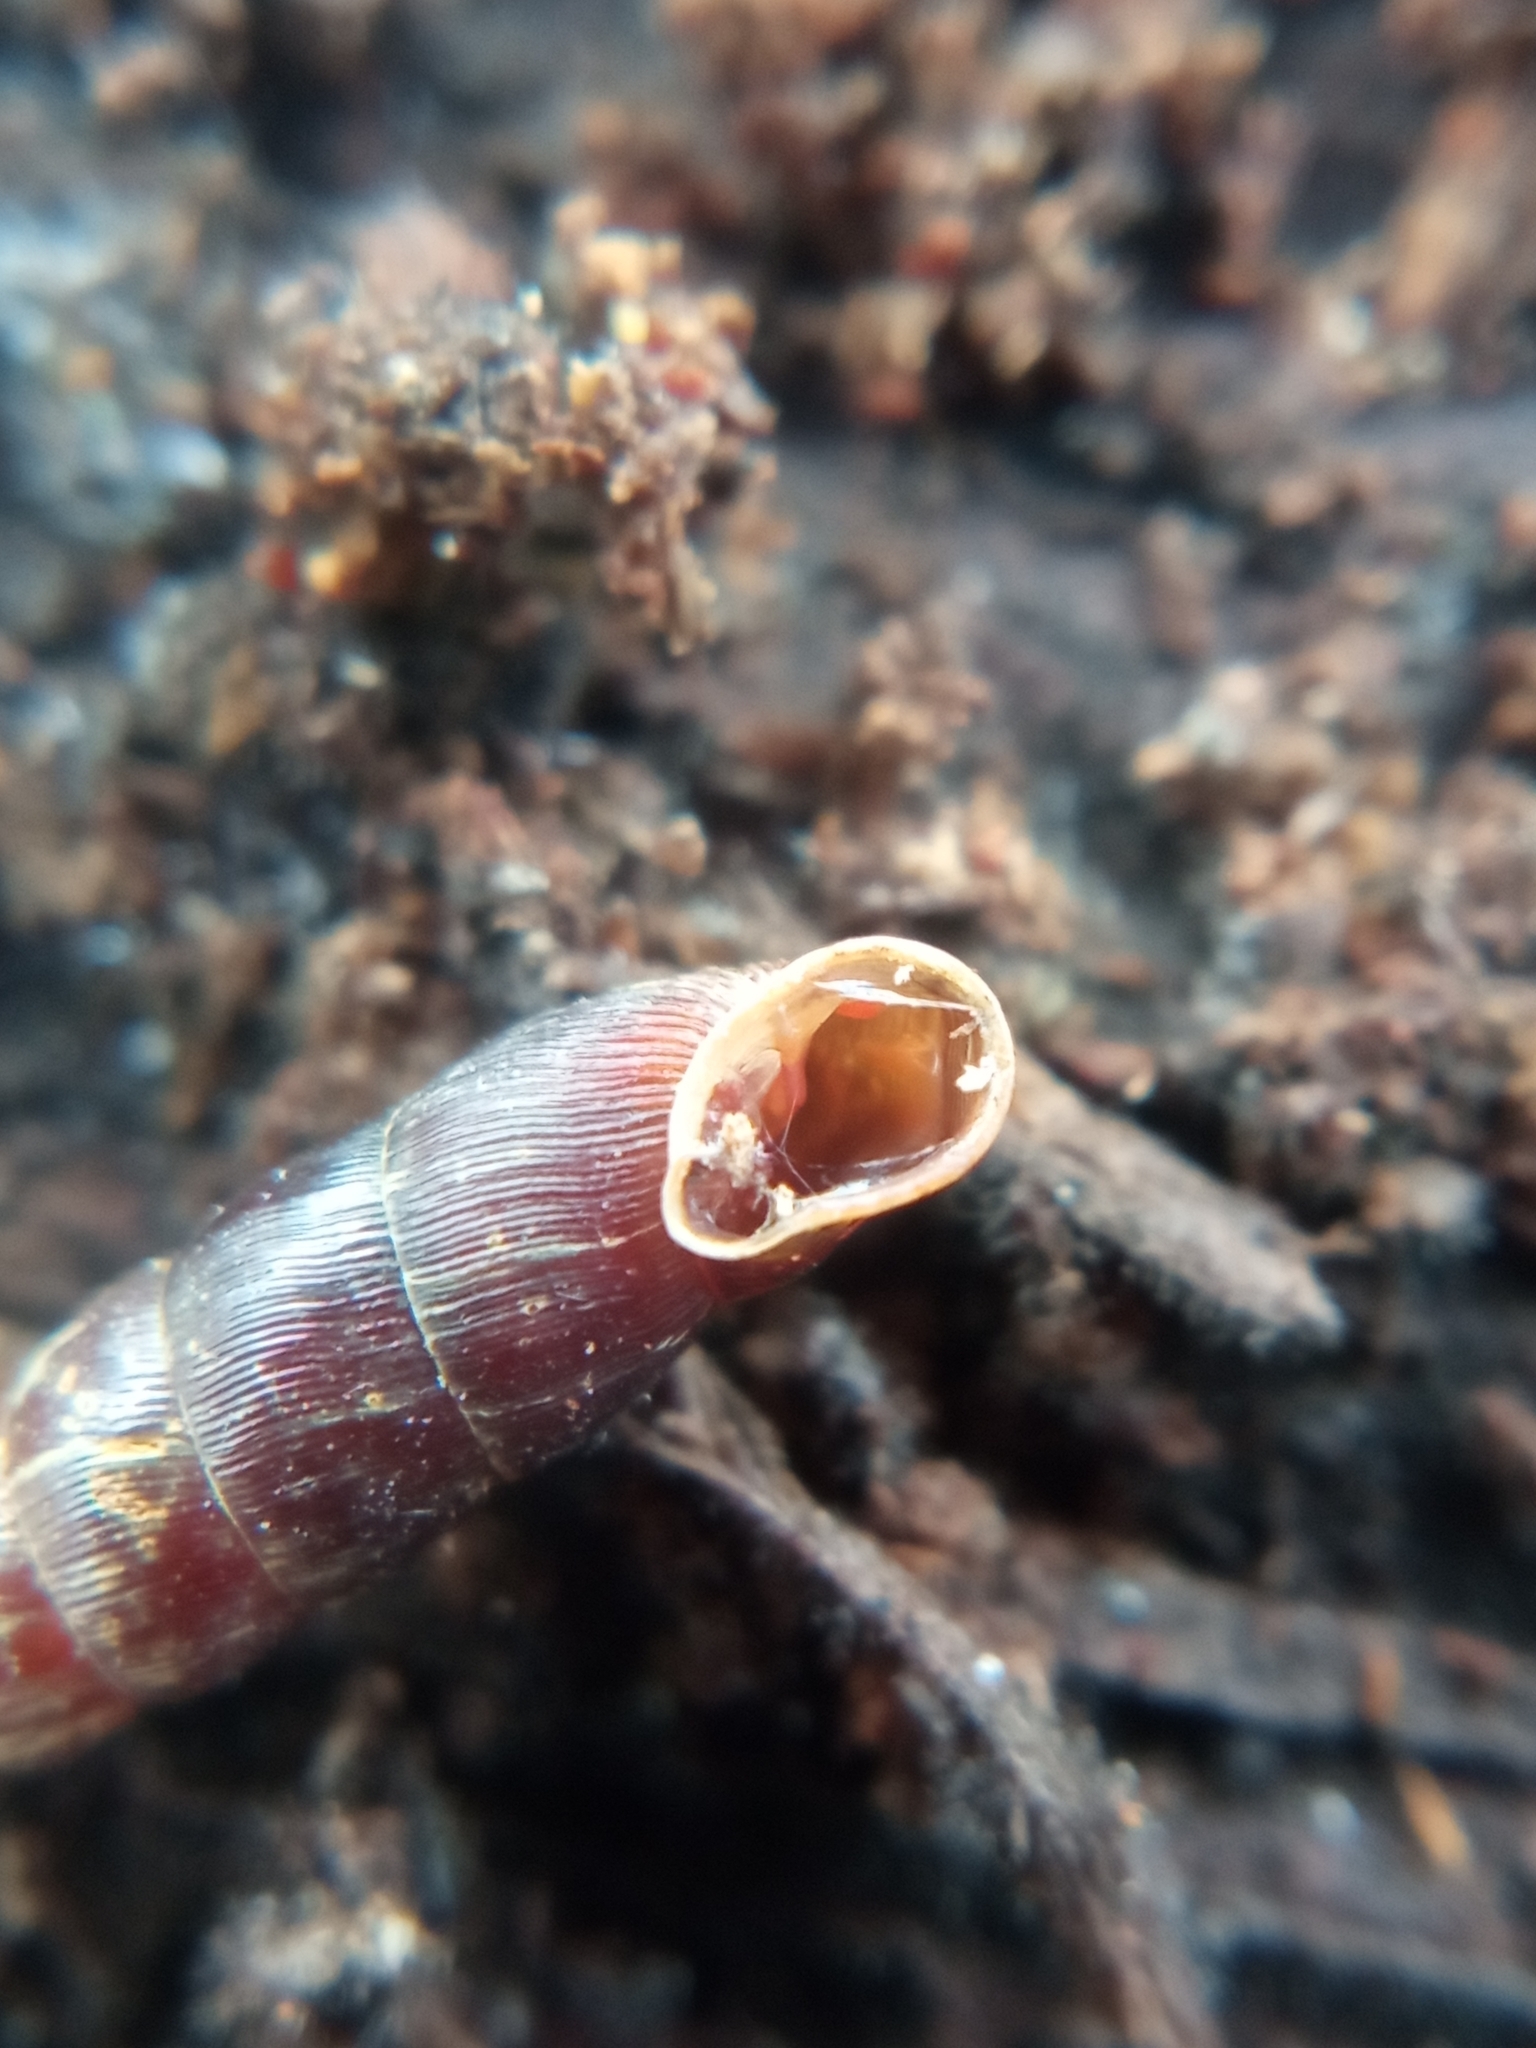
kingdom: Animalia
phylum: Mollusca
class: Gastropoda
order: Stylommatophora
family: Clausiliidae
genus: Clausilia
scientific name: Clausilia bidentata
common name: Two-toothed door snail
